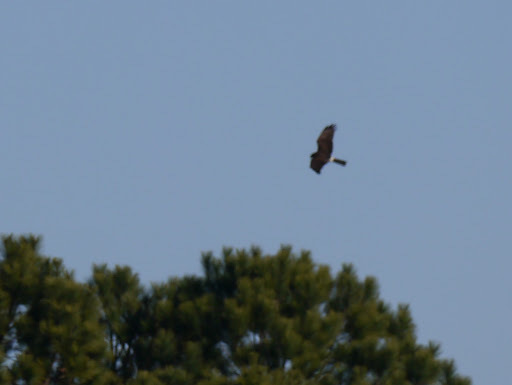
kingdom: Animalia
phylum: Chordata
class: Aves
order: Accipitriformes
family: Accipitridae
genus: Circus
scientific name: Circus cyaneus
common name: Hen harrier
